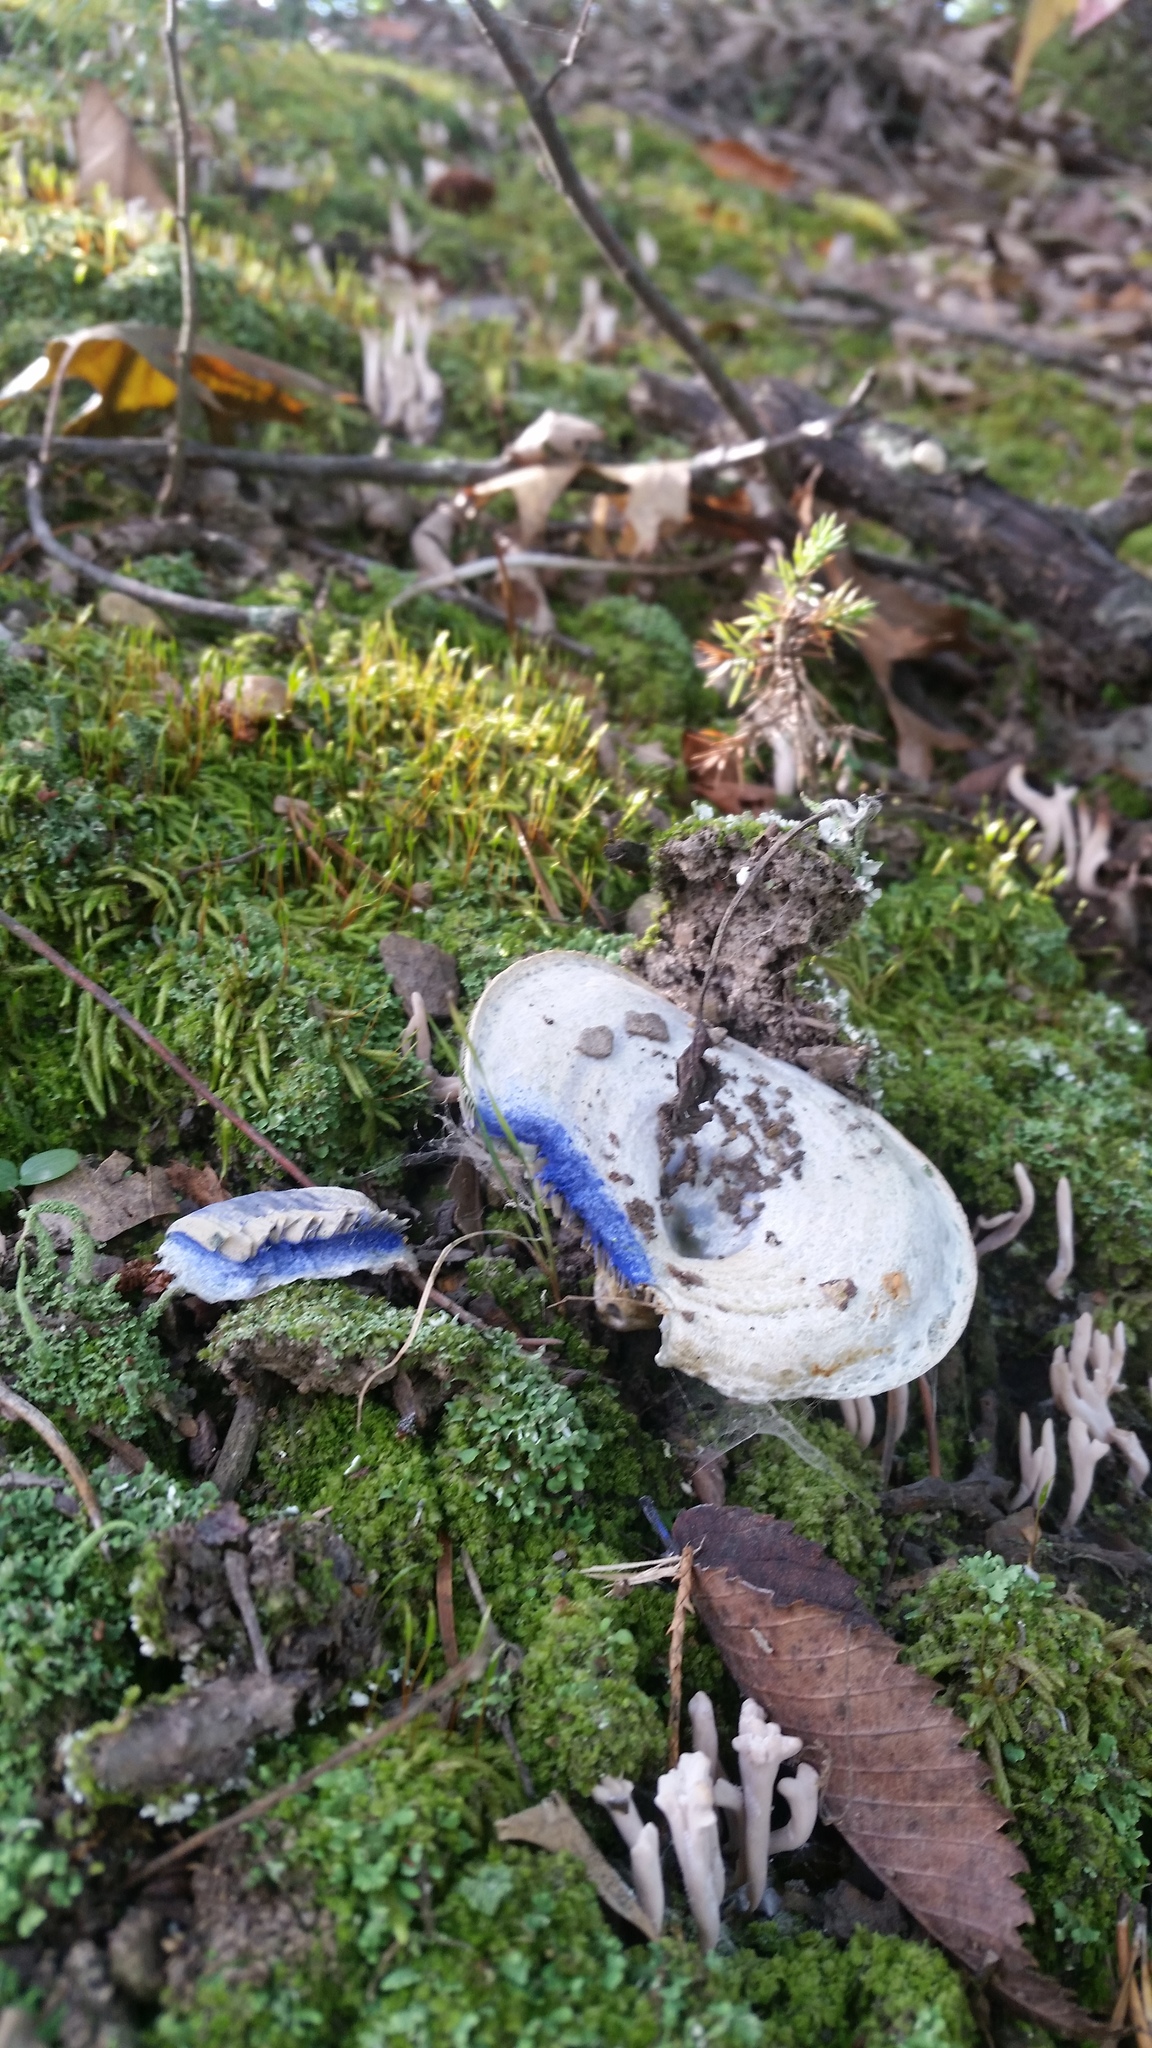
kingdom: Fungi
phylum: Basidiomycota
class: Agaricomycetes
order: Russulales
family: Russulaceae
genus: Lactarius
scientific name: Lactarius indigo
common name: Indigo milk cap
